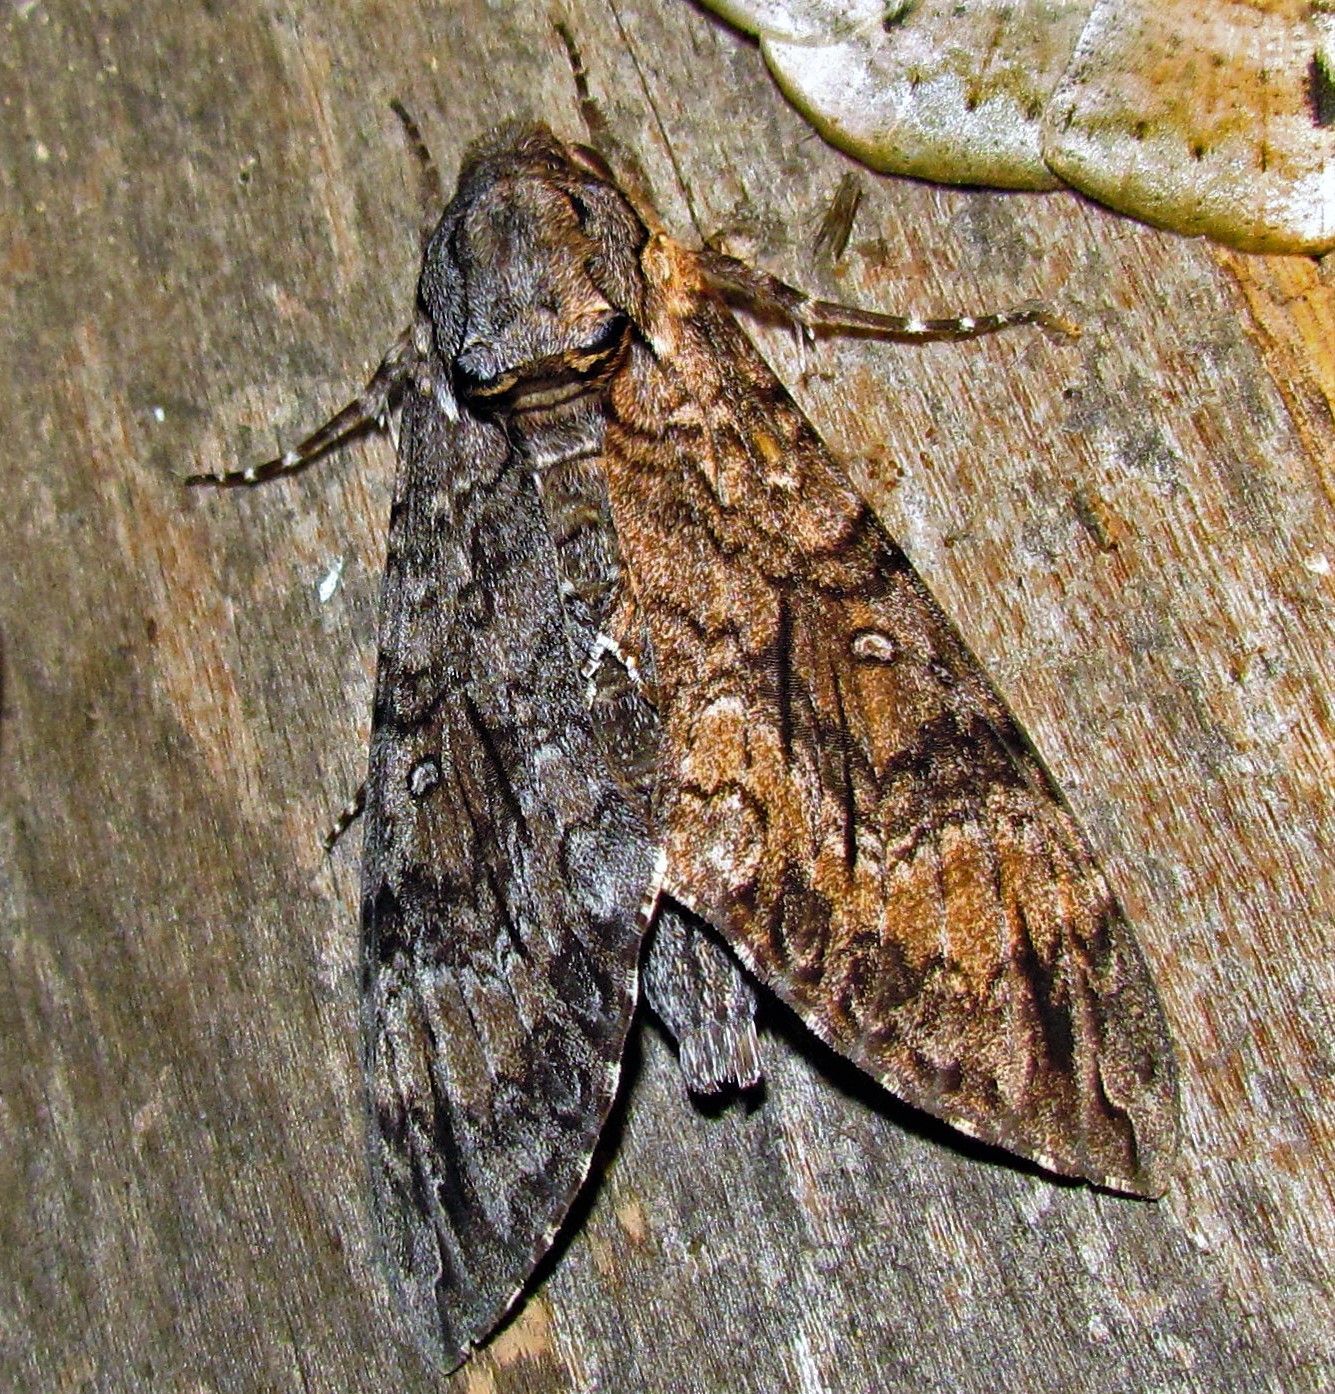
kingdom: Animalia
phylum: Arthropoda
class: Insecta
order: Lepidoptera
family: Sphingidae
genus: Agrius
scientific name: Agrius cingulata
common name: Pink-spotted hawkmoth
